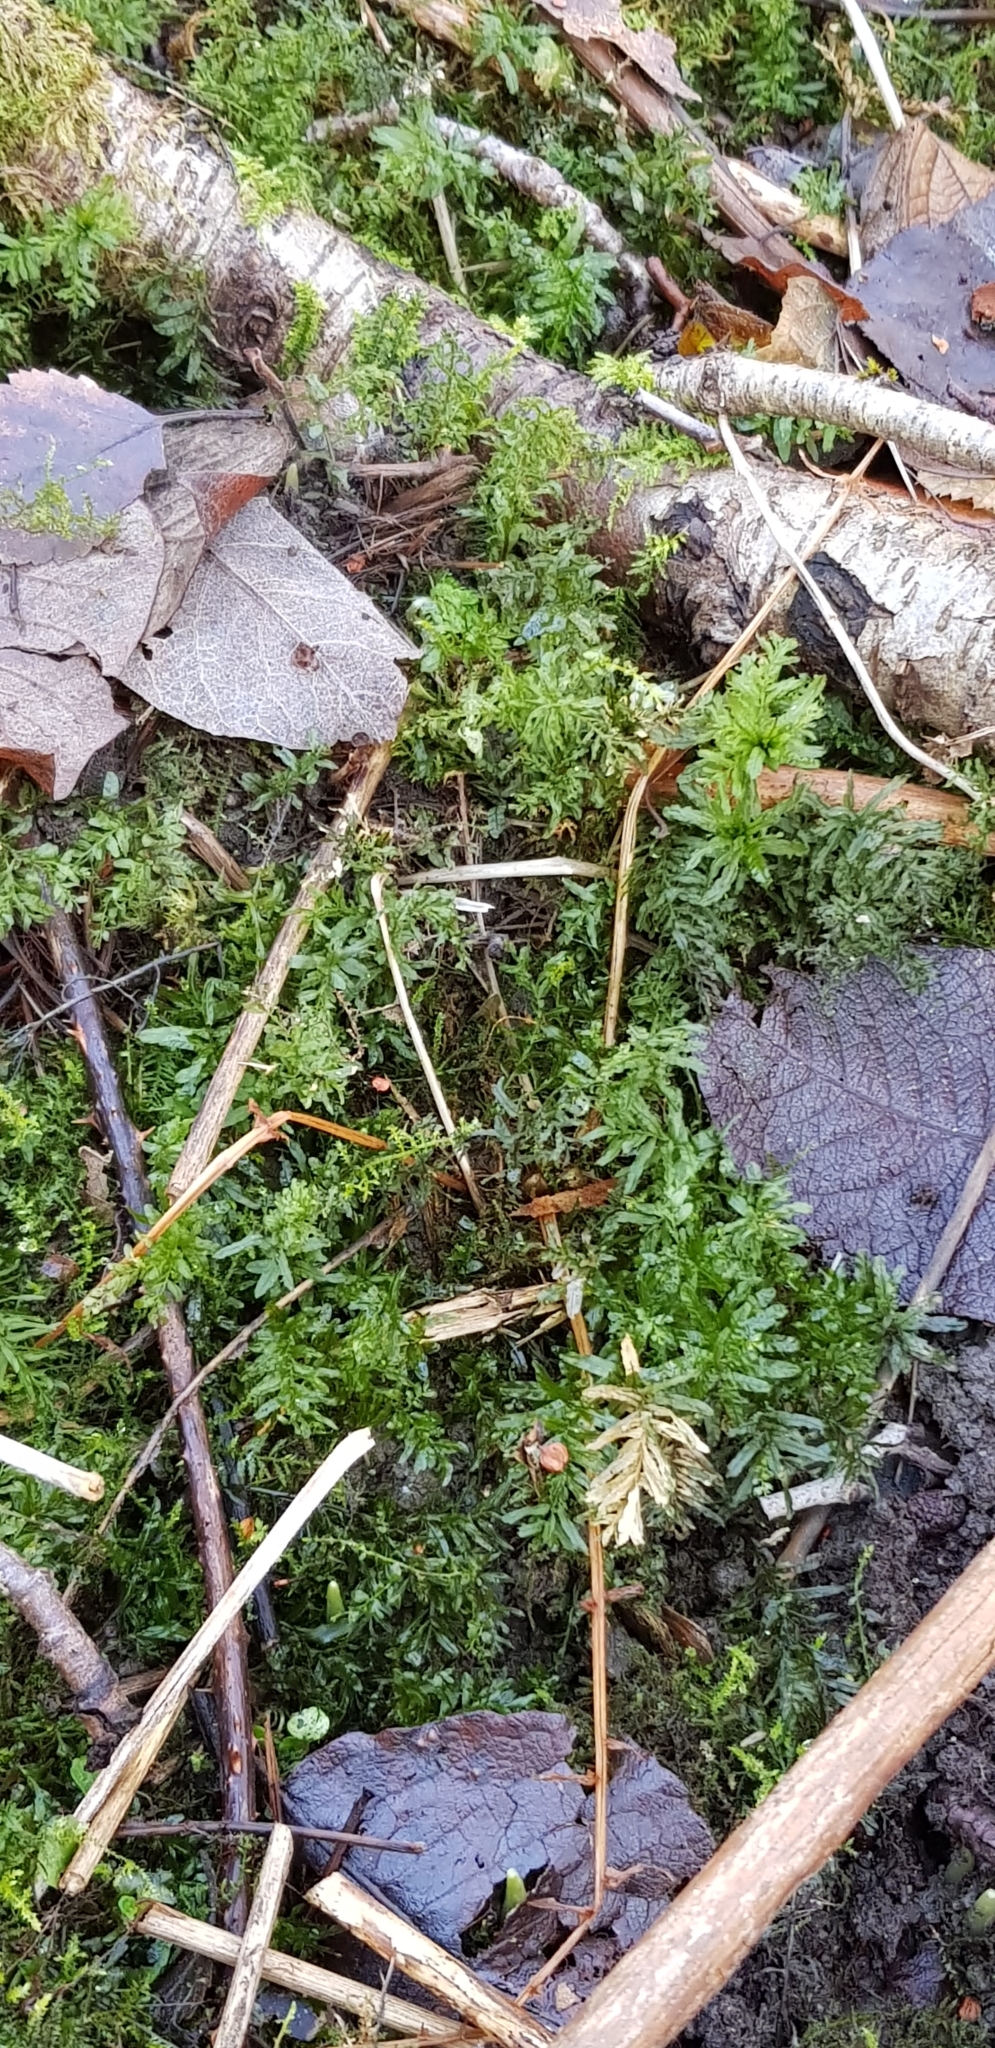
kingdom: Plantae
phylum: Bryophyta
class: Bryopsida
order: Bryales
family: Mniaceae
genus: Plagiomnium
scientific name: Plagiomnium undulatum
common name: Hart's-tongue thyme-moss
